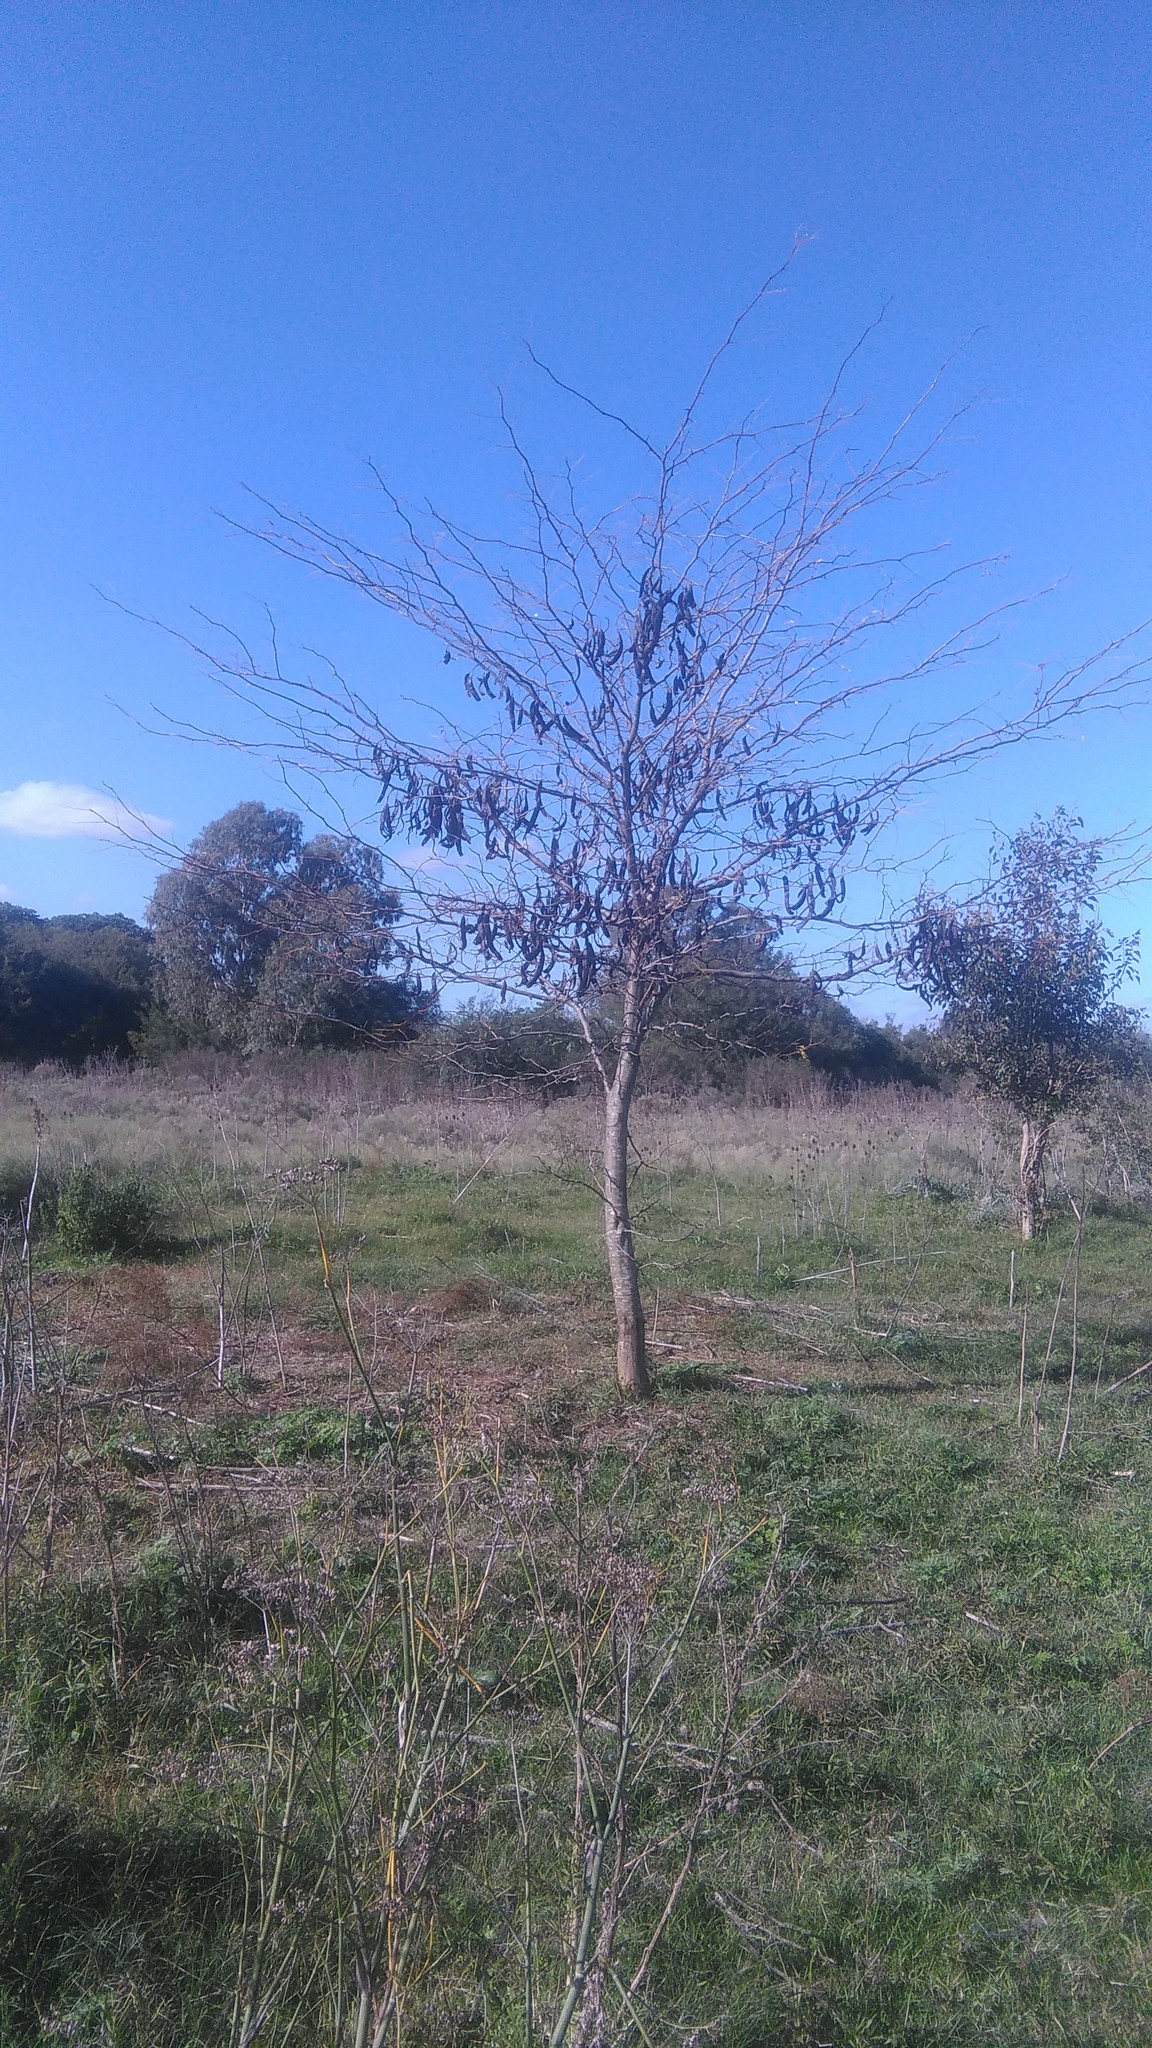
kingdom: Plantae
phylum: Tracheophyta
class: Magnoliopsida
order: Fabales
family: Fabaceae
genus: Gleditsia
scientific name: Gleditsia triacanthos
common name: Common honeylocust
